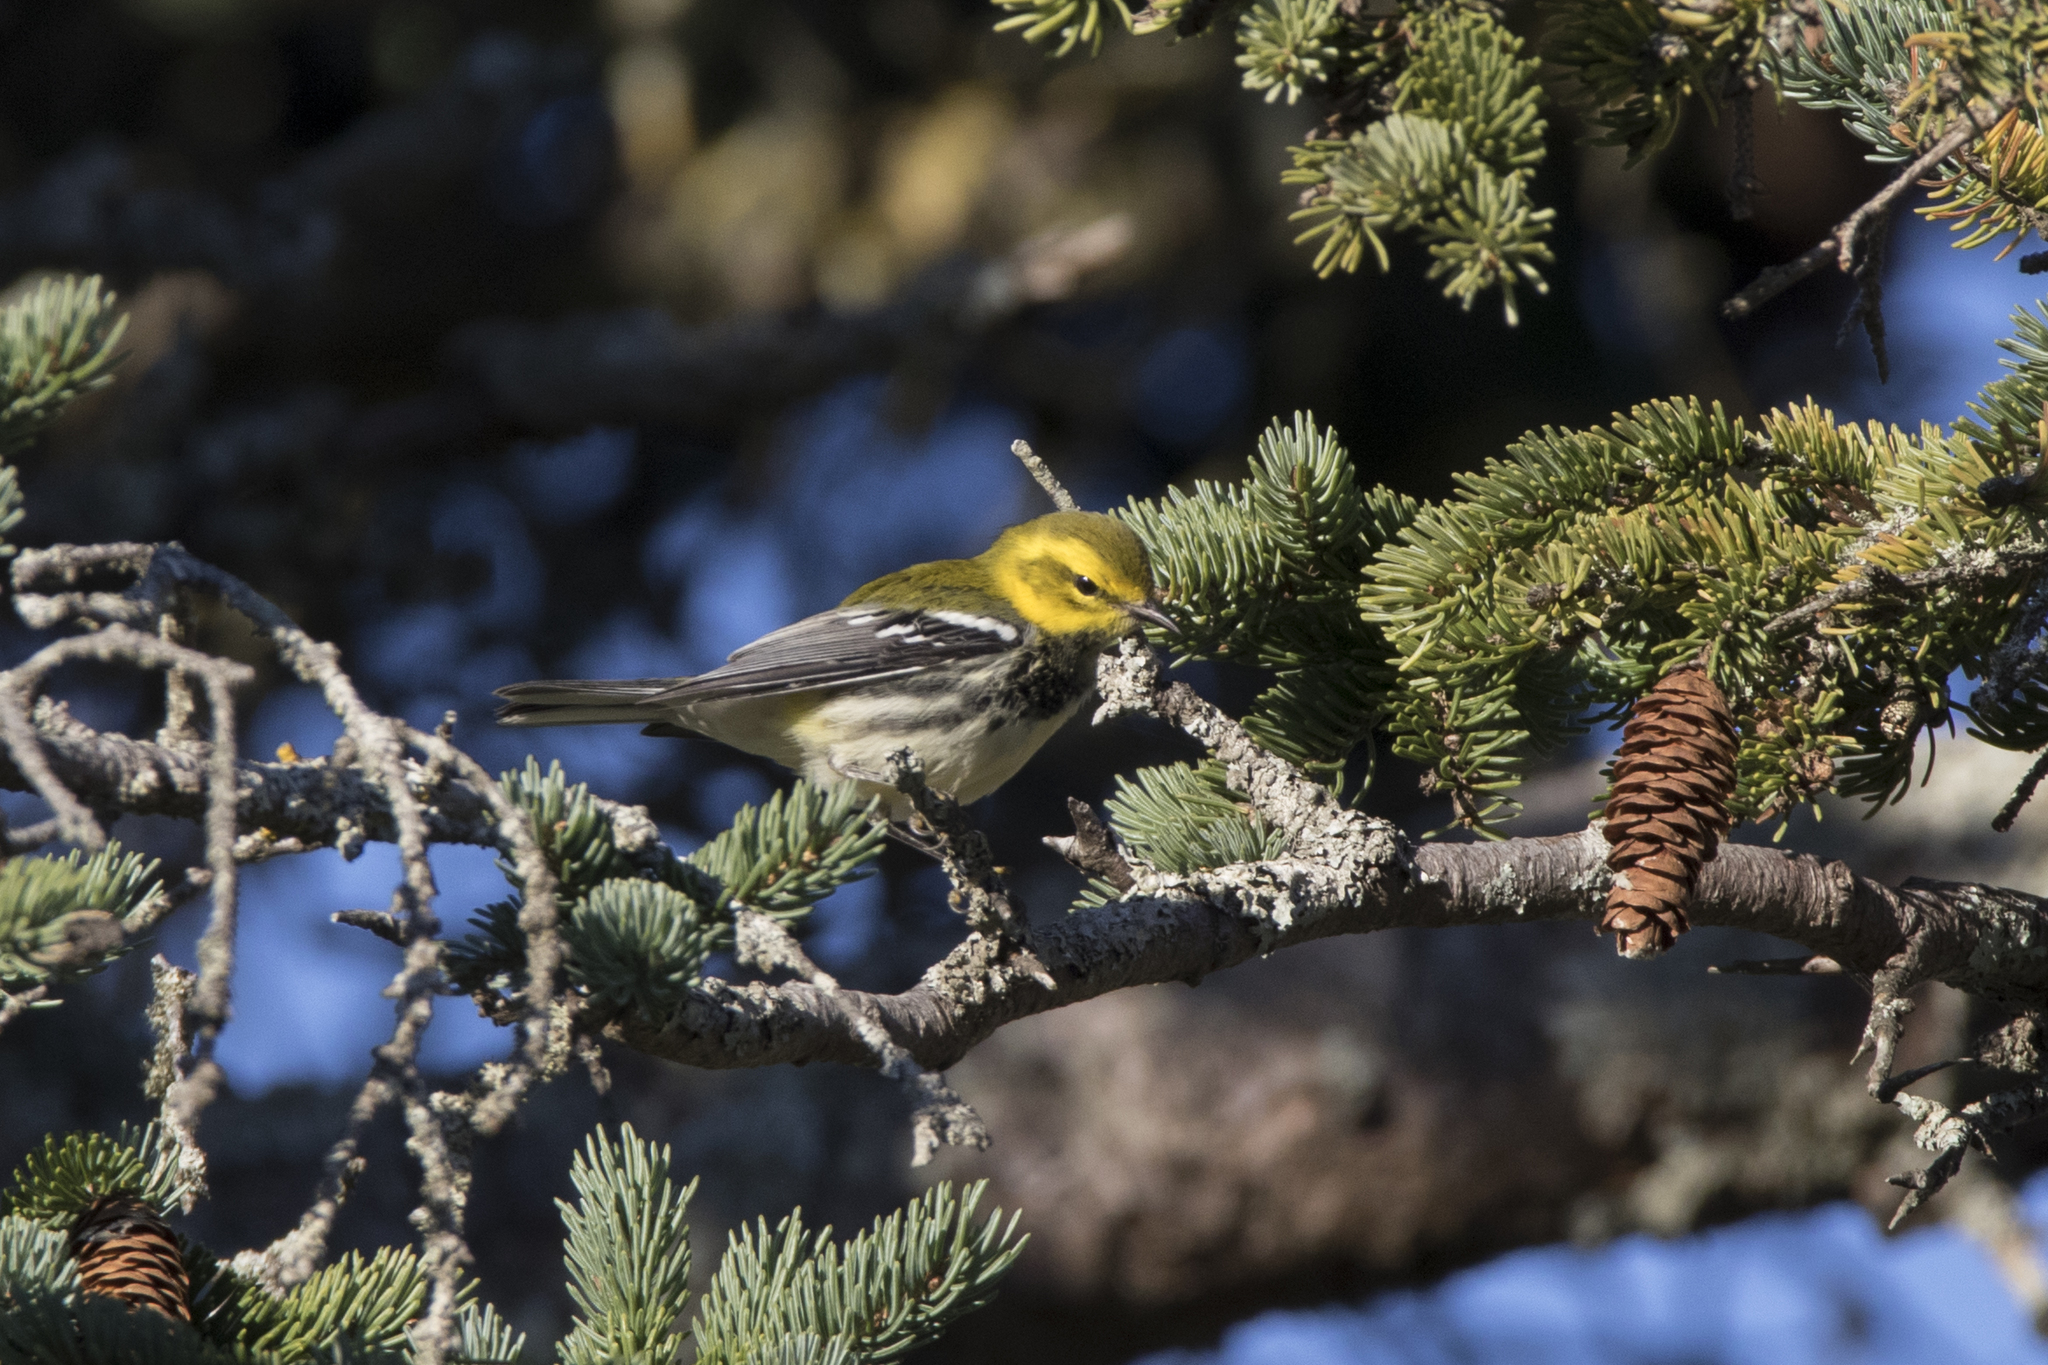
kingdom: Animalia
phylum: Chordata
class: Aves
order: Passeriformes
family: Parulidae
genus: Setophaga
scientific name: Setophaga virens
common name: Black-throated green warbler
